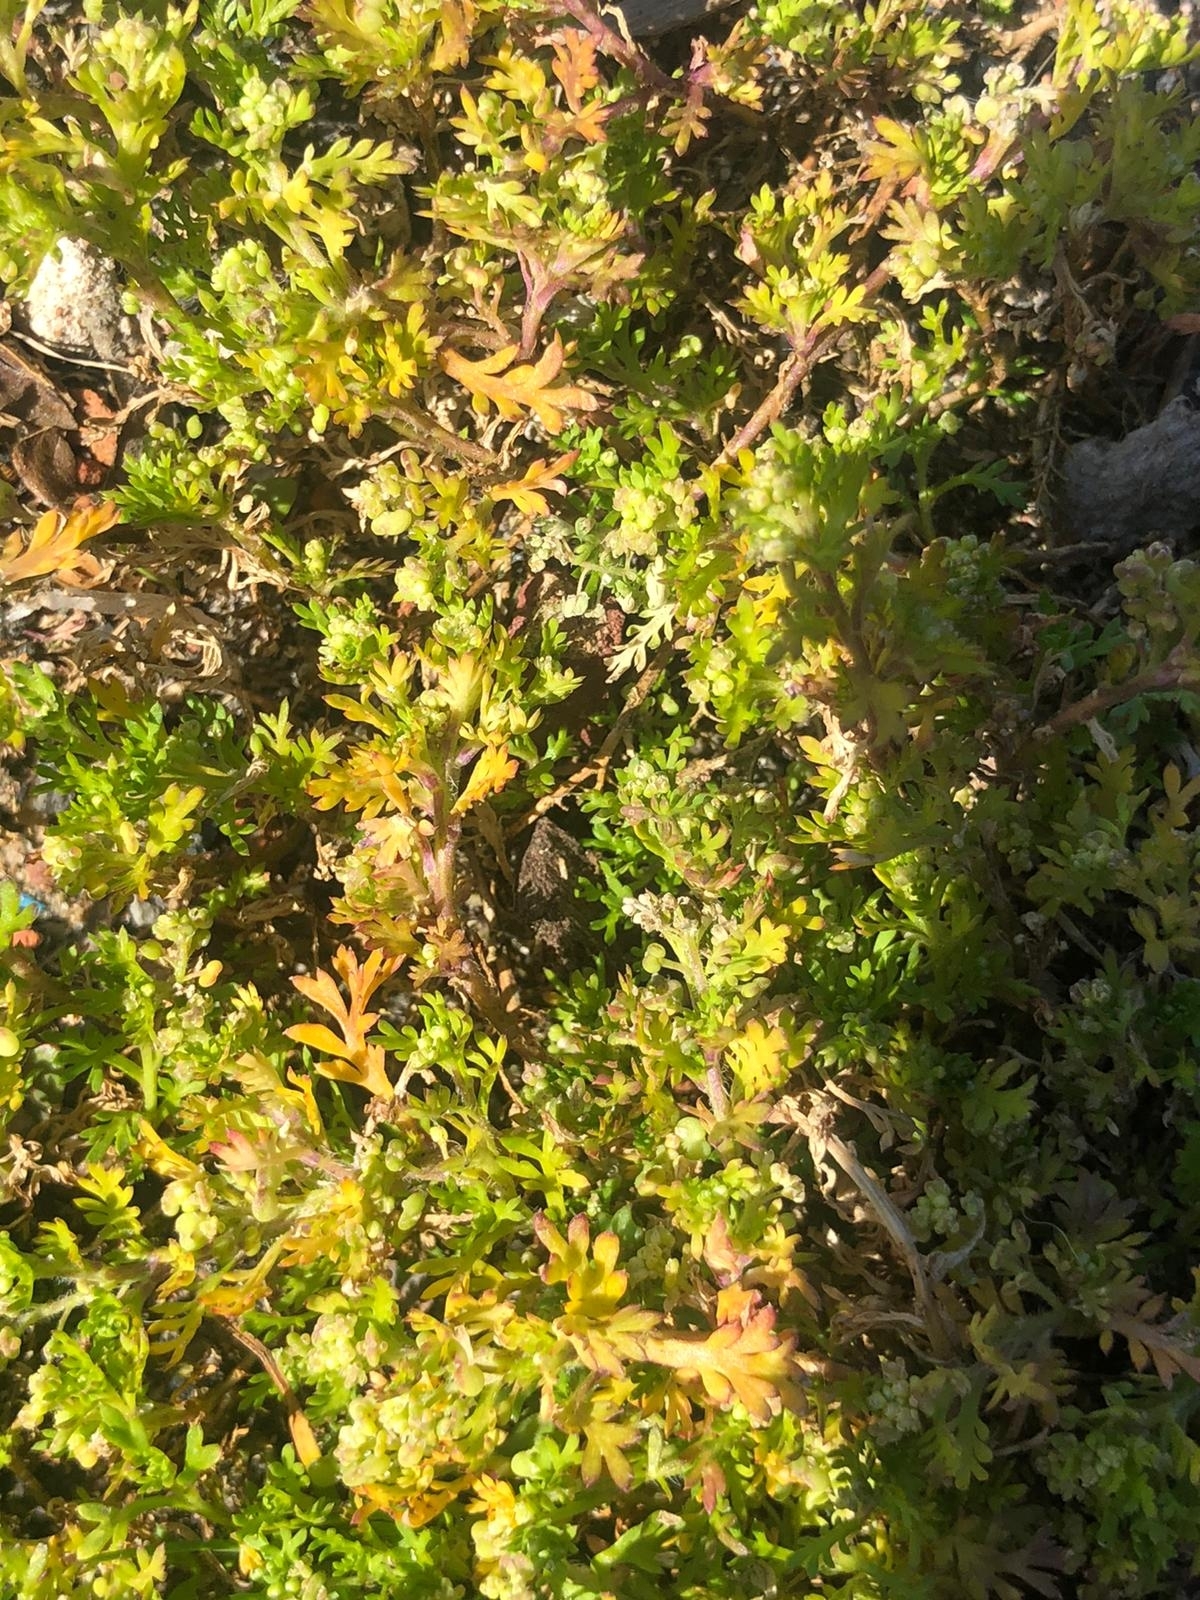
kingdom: Plantae
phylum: Tracheophyta
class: Magnoliopsida
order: Brassicales
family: Brassicaceae
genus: Lepidium
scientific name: Lepidium didymum
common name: Lesser swinecress
